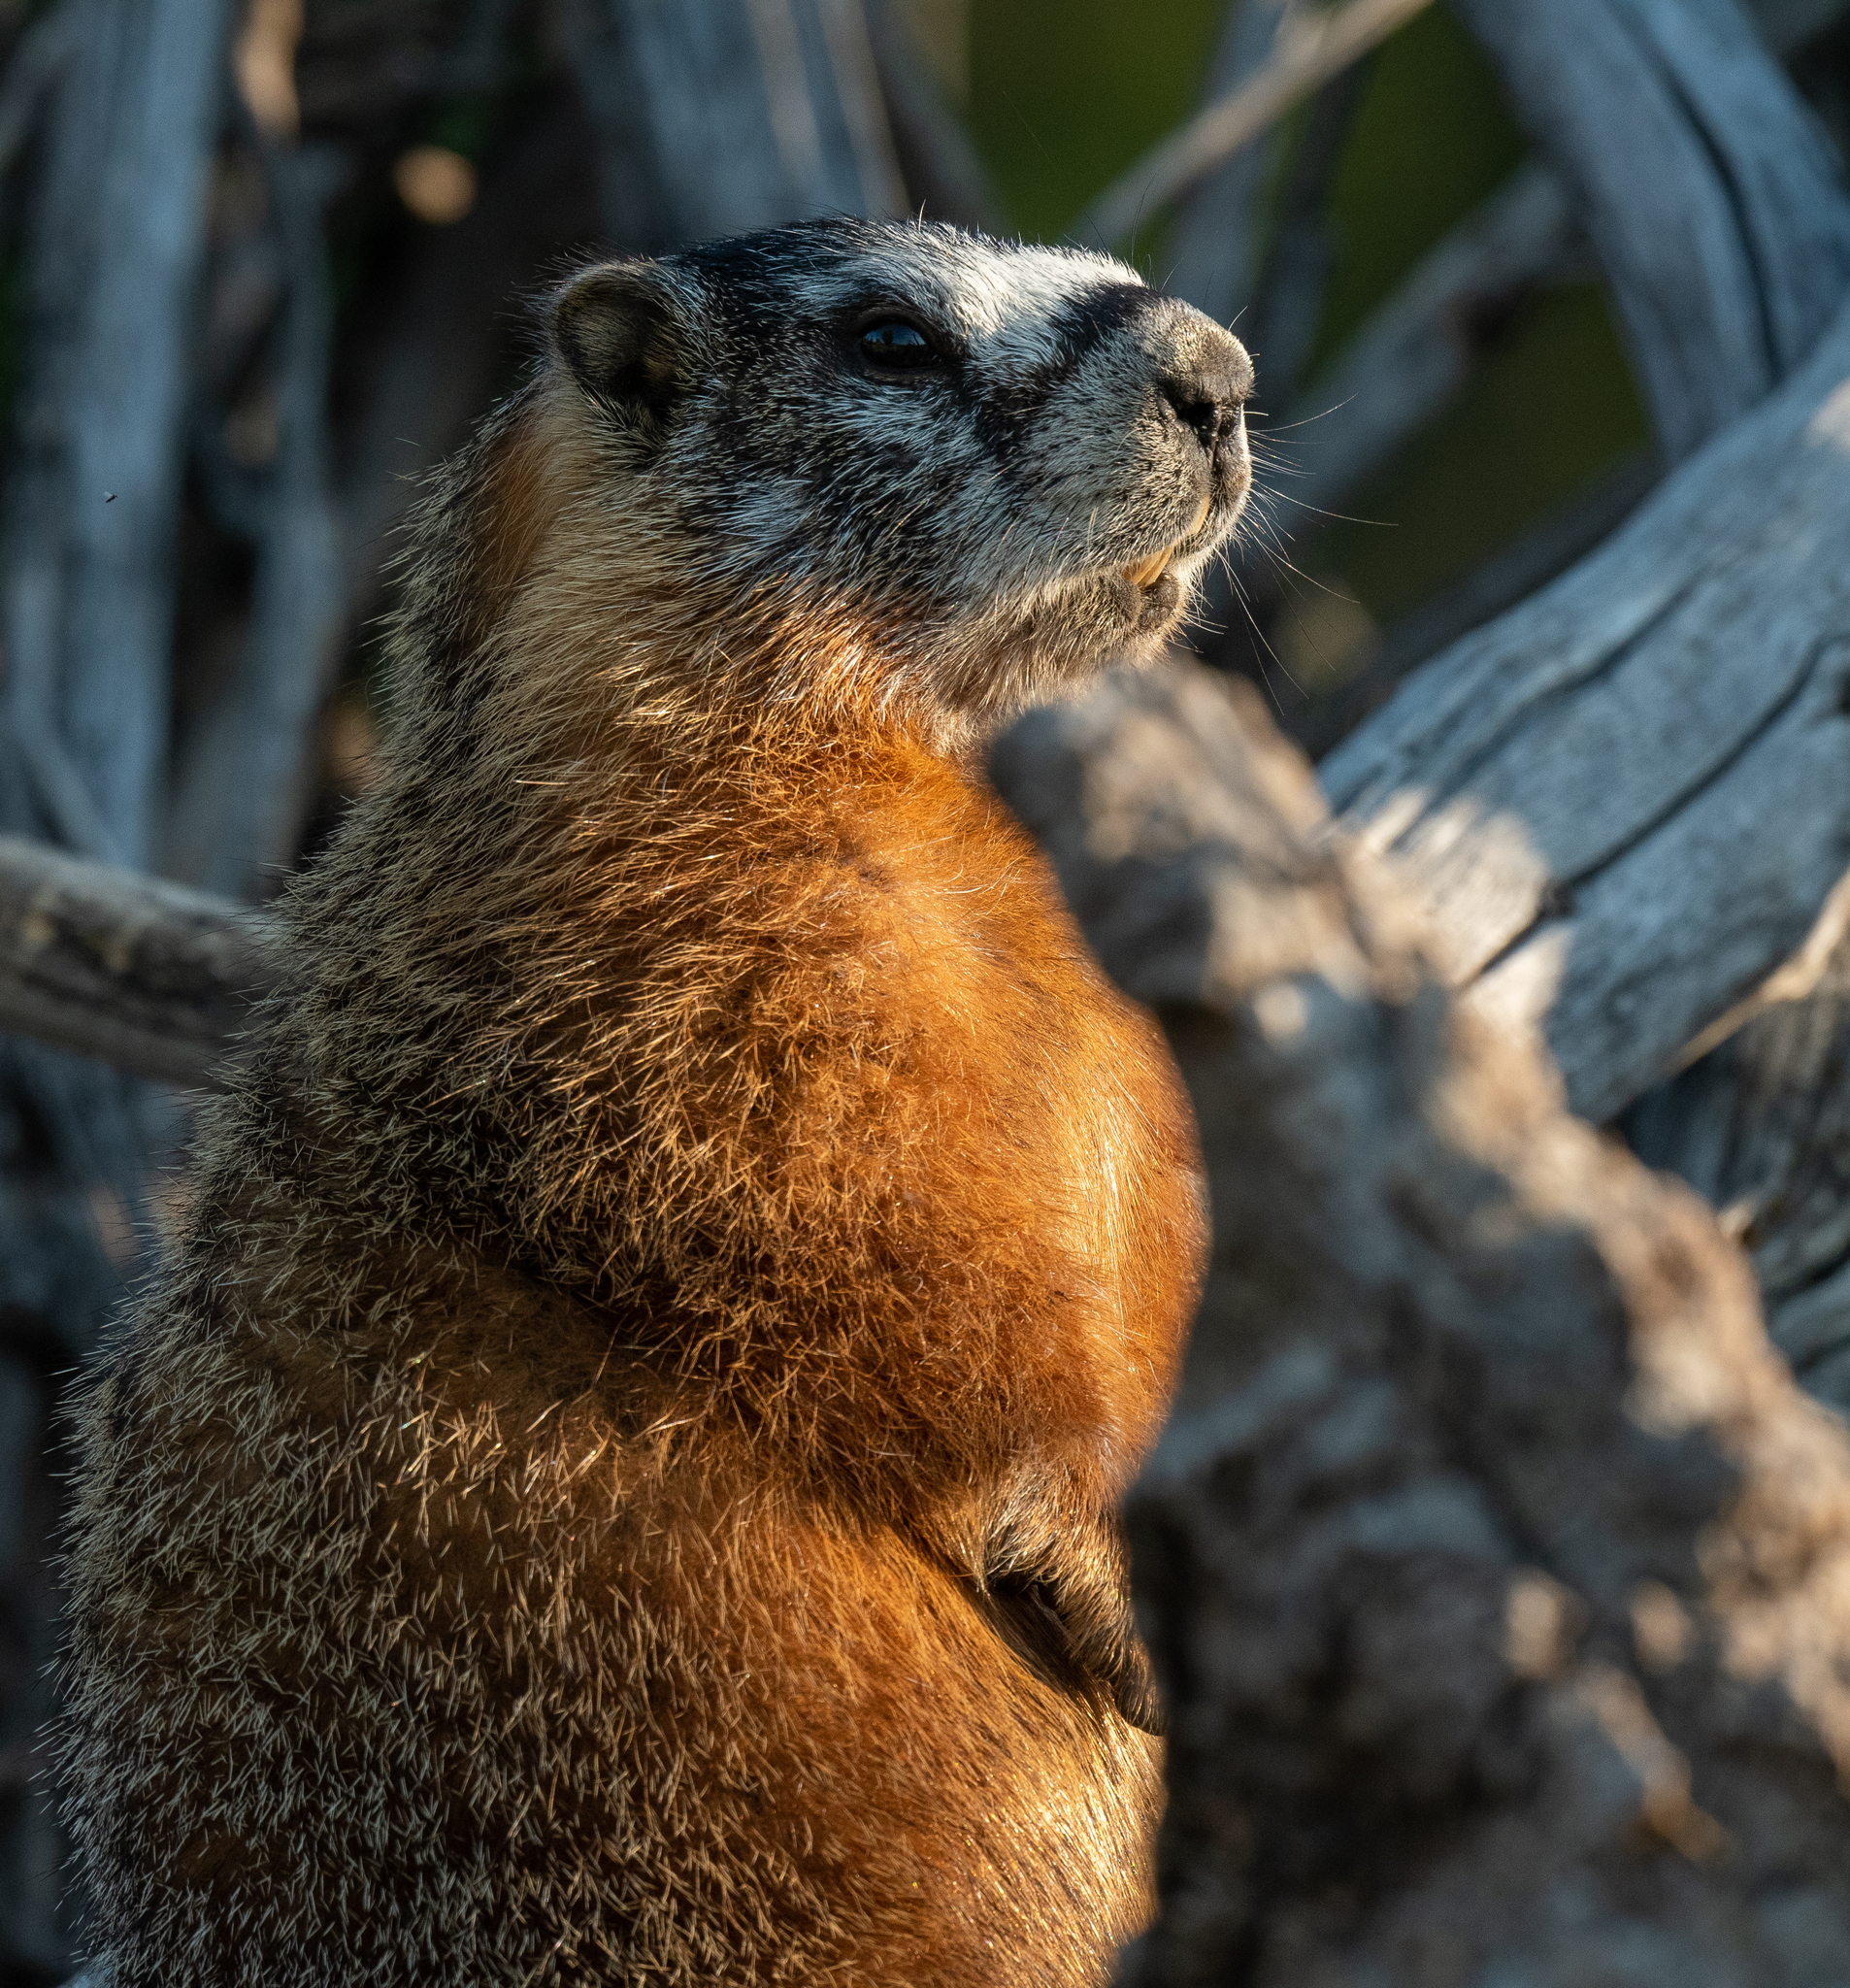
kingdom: Animalia
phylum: Chordata
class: Mammalia
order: Rodentia
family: Sciuridae
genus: Marmota
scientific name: Marmota flaviventris
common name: Yellow-bellied marmot
